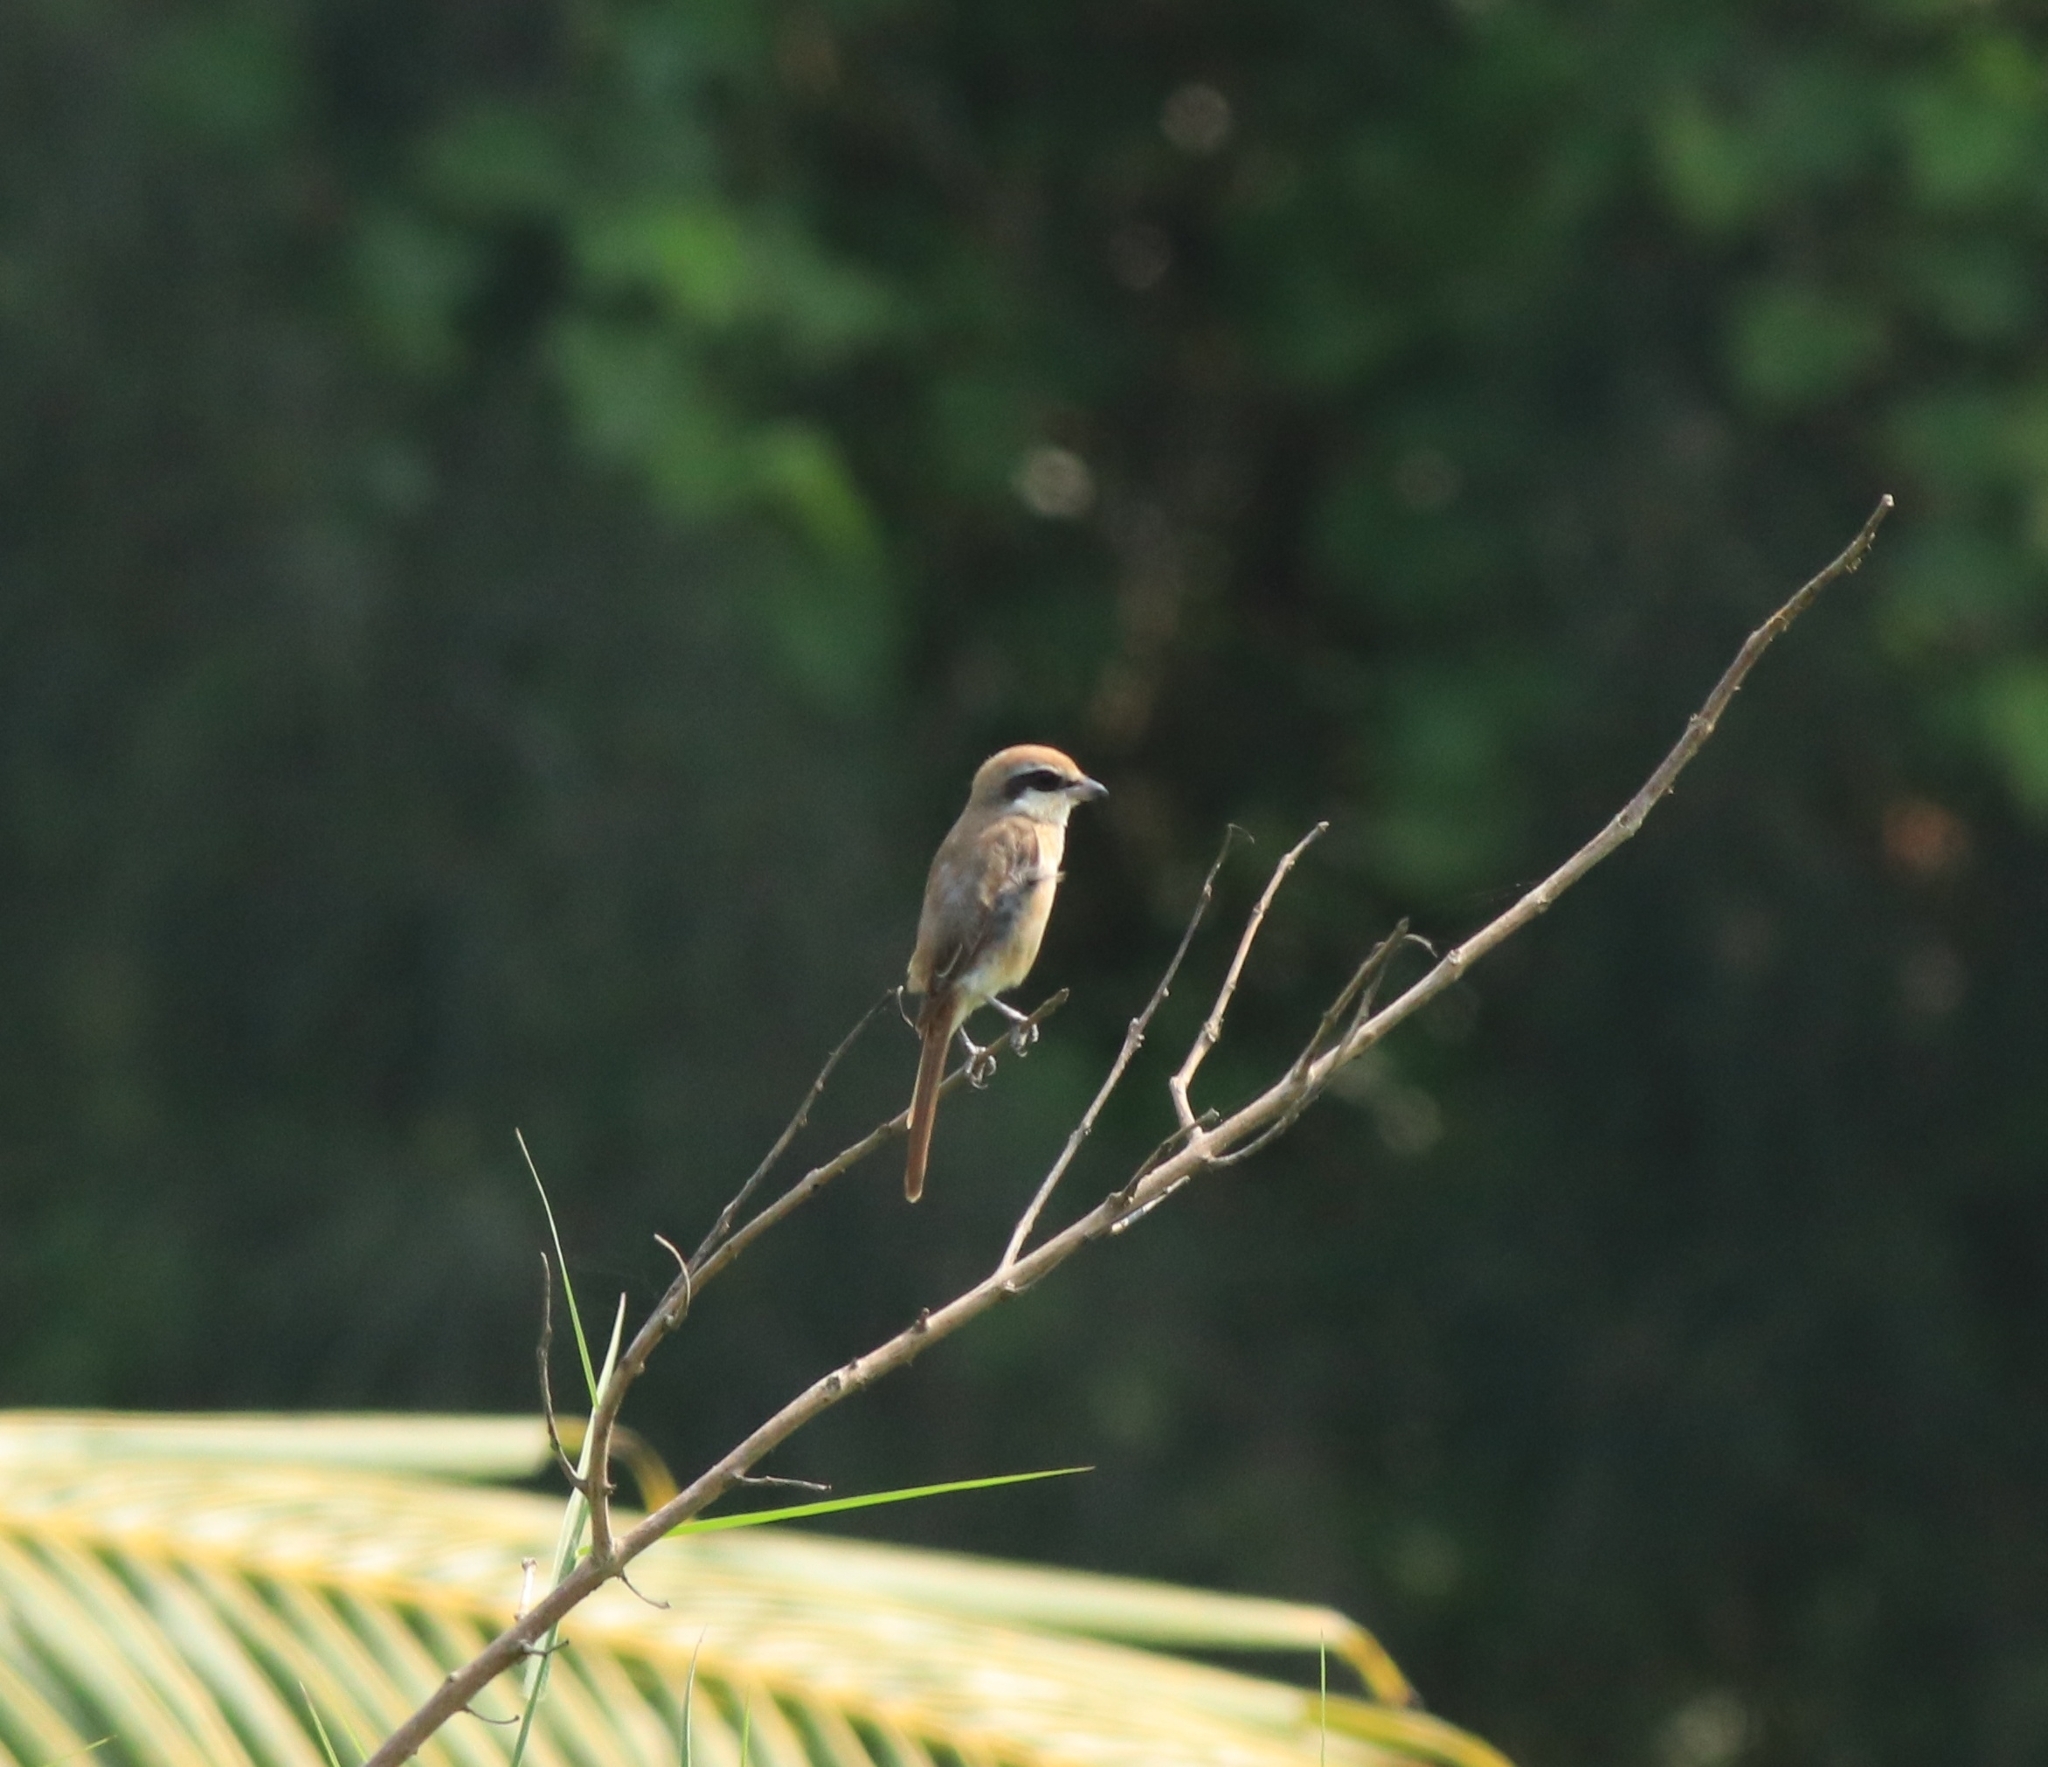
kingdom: Animalia
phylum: Chordata
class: Aves
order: Passeriformes
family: Laniidae
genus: Lanius
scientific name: Lanius cristatus
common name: Brown shrike
